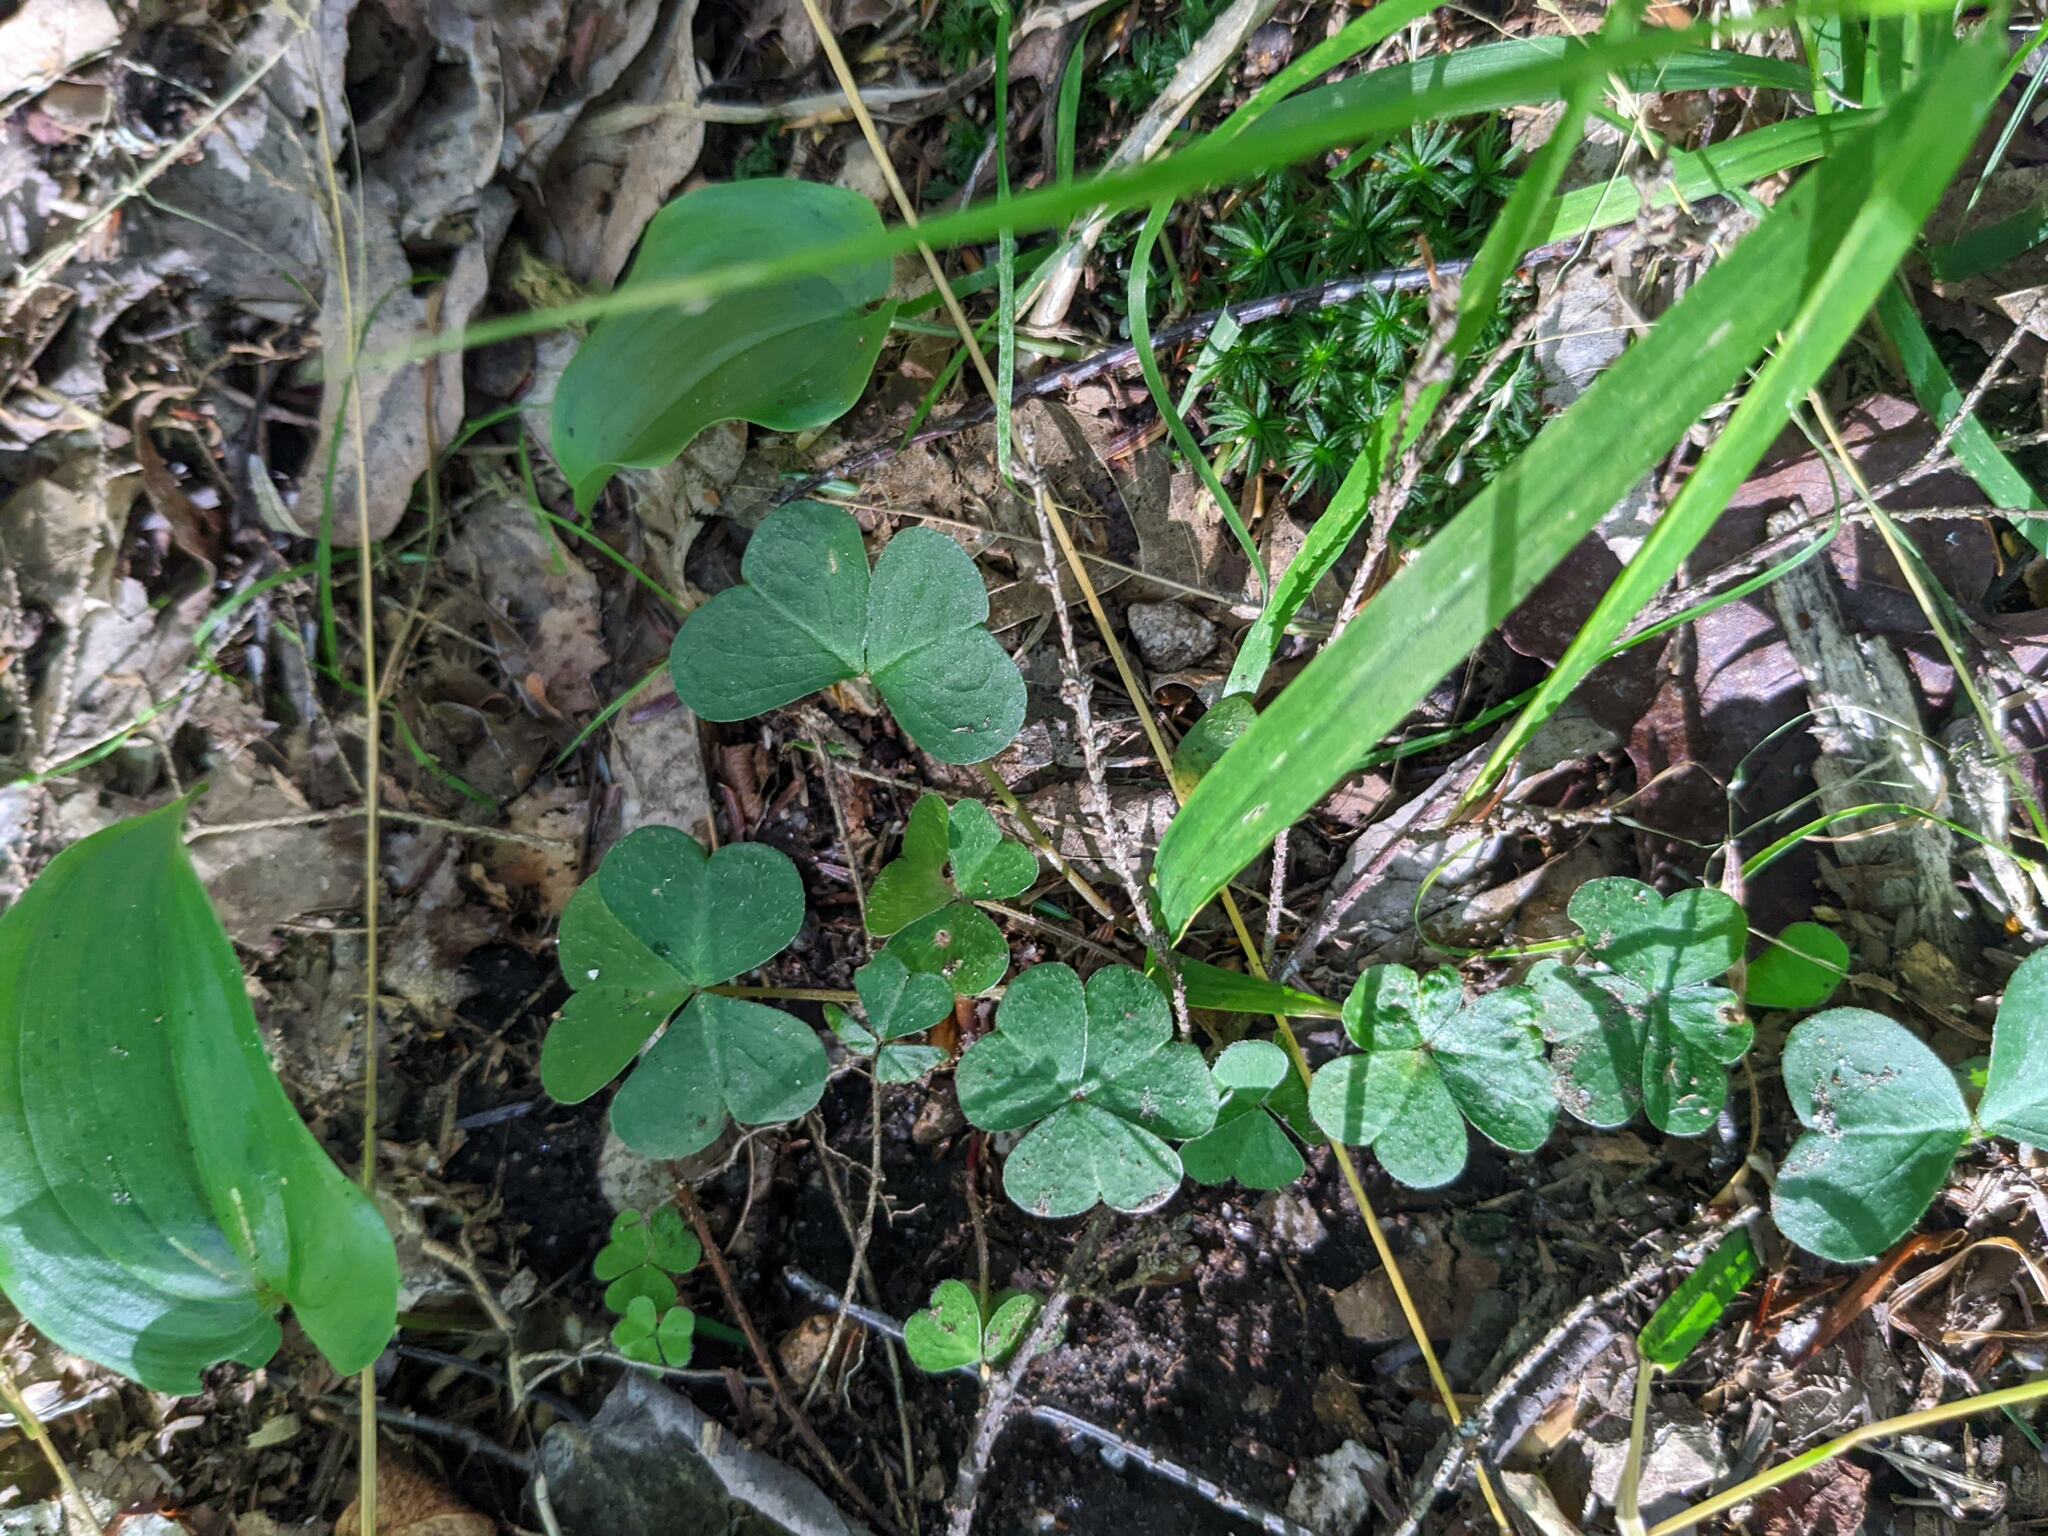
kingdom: Plantae
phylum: Tracheophyta
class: Magnoliopsida
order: Oxalidales
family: Oxalidaceae
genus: Oxalis
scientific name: Oxalis montana
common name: American wood-sorrel
